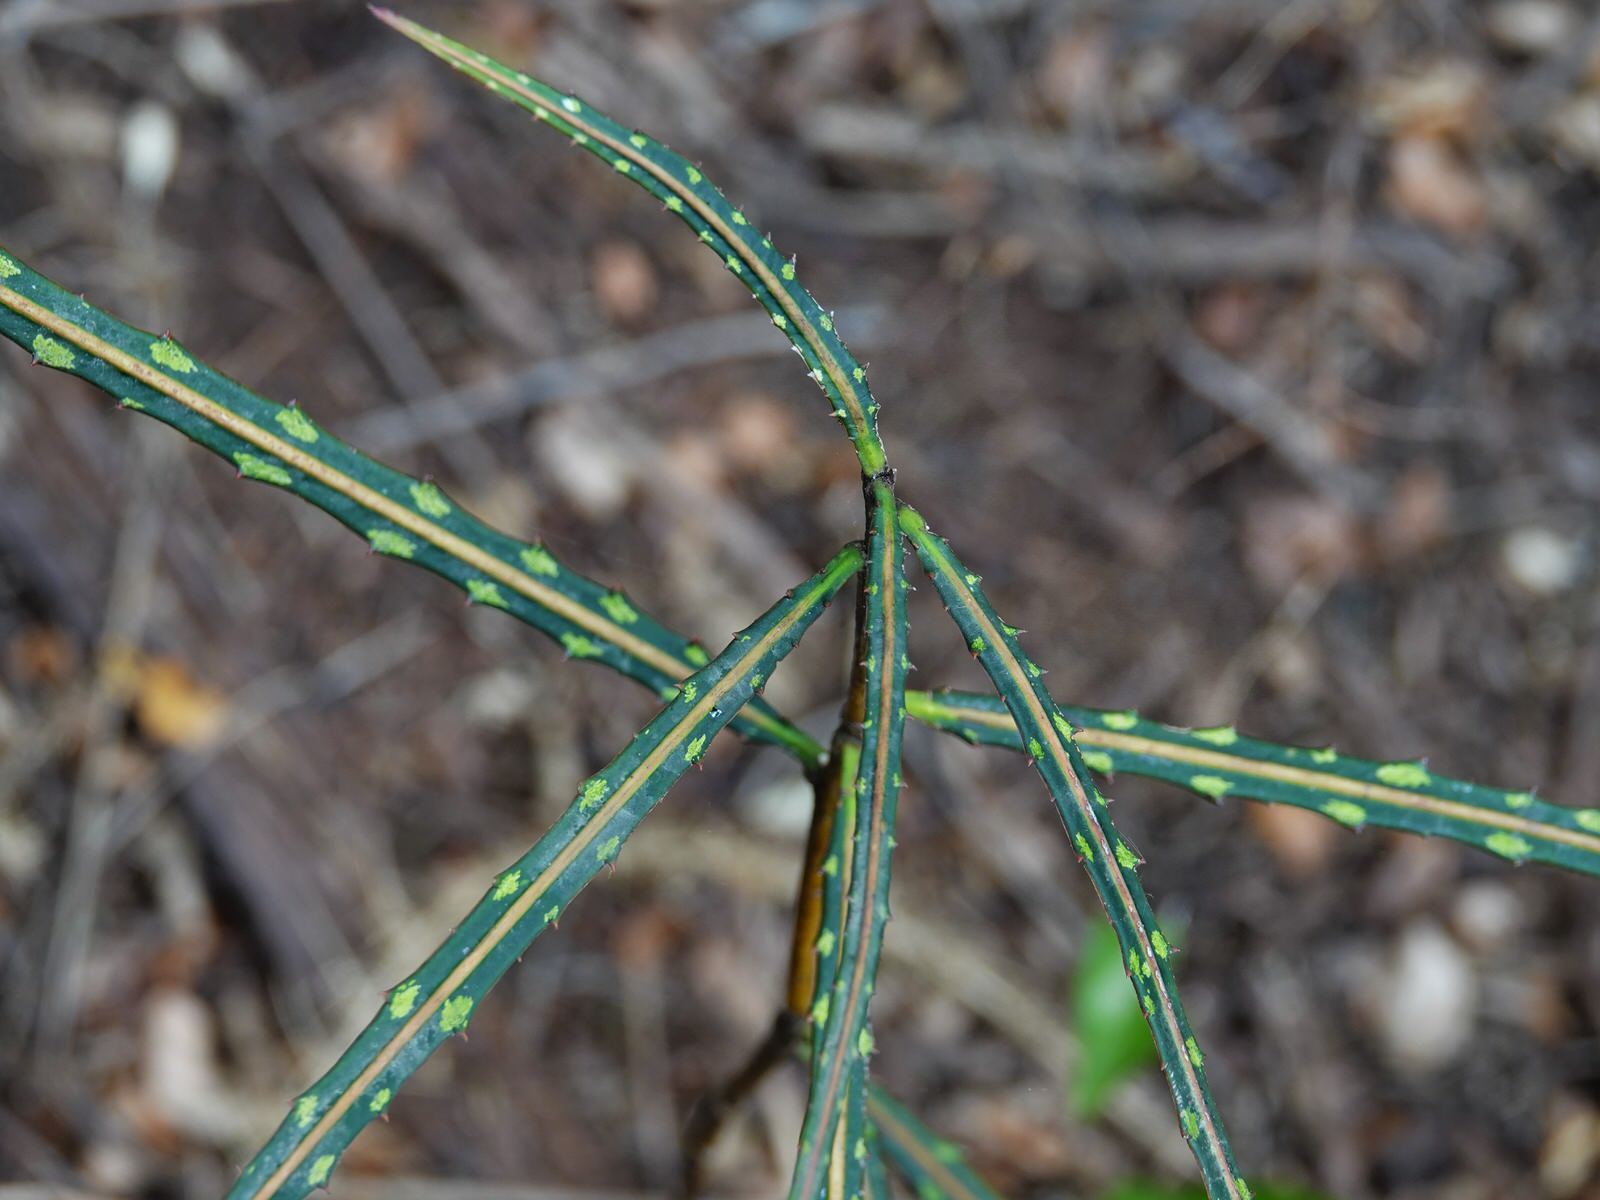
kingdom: Plantae
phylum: Tracheophyta
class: Magnoliopsida
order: Apiales
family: Araliaceae
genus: Pseudopanax
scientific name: Pseudopanax crassifolius
